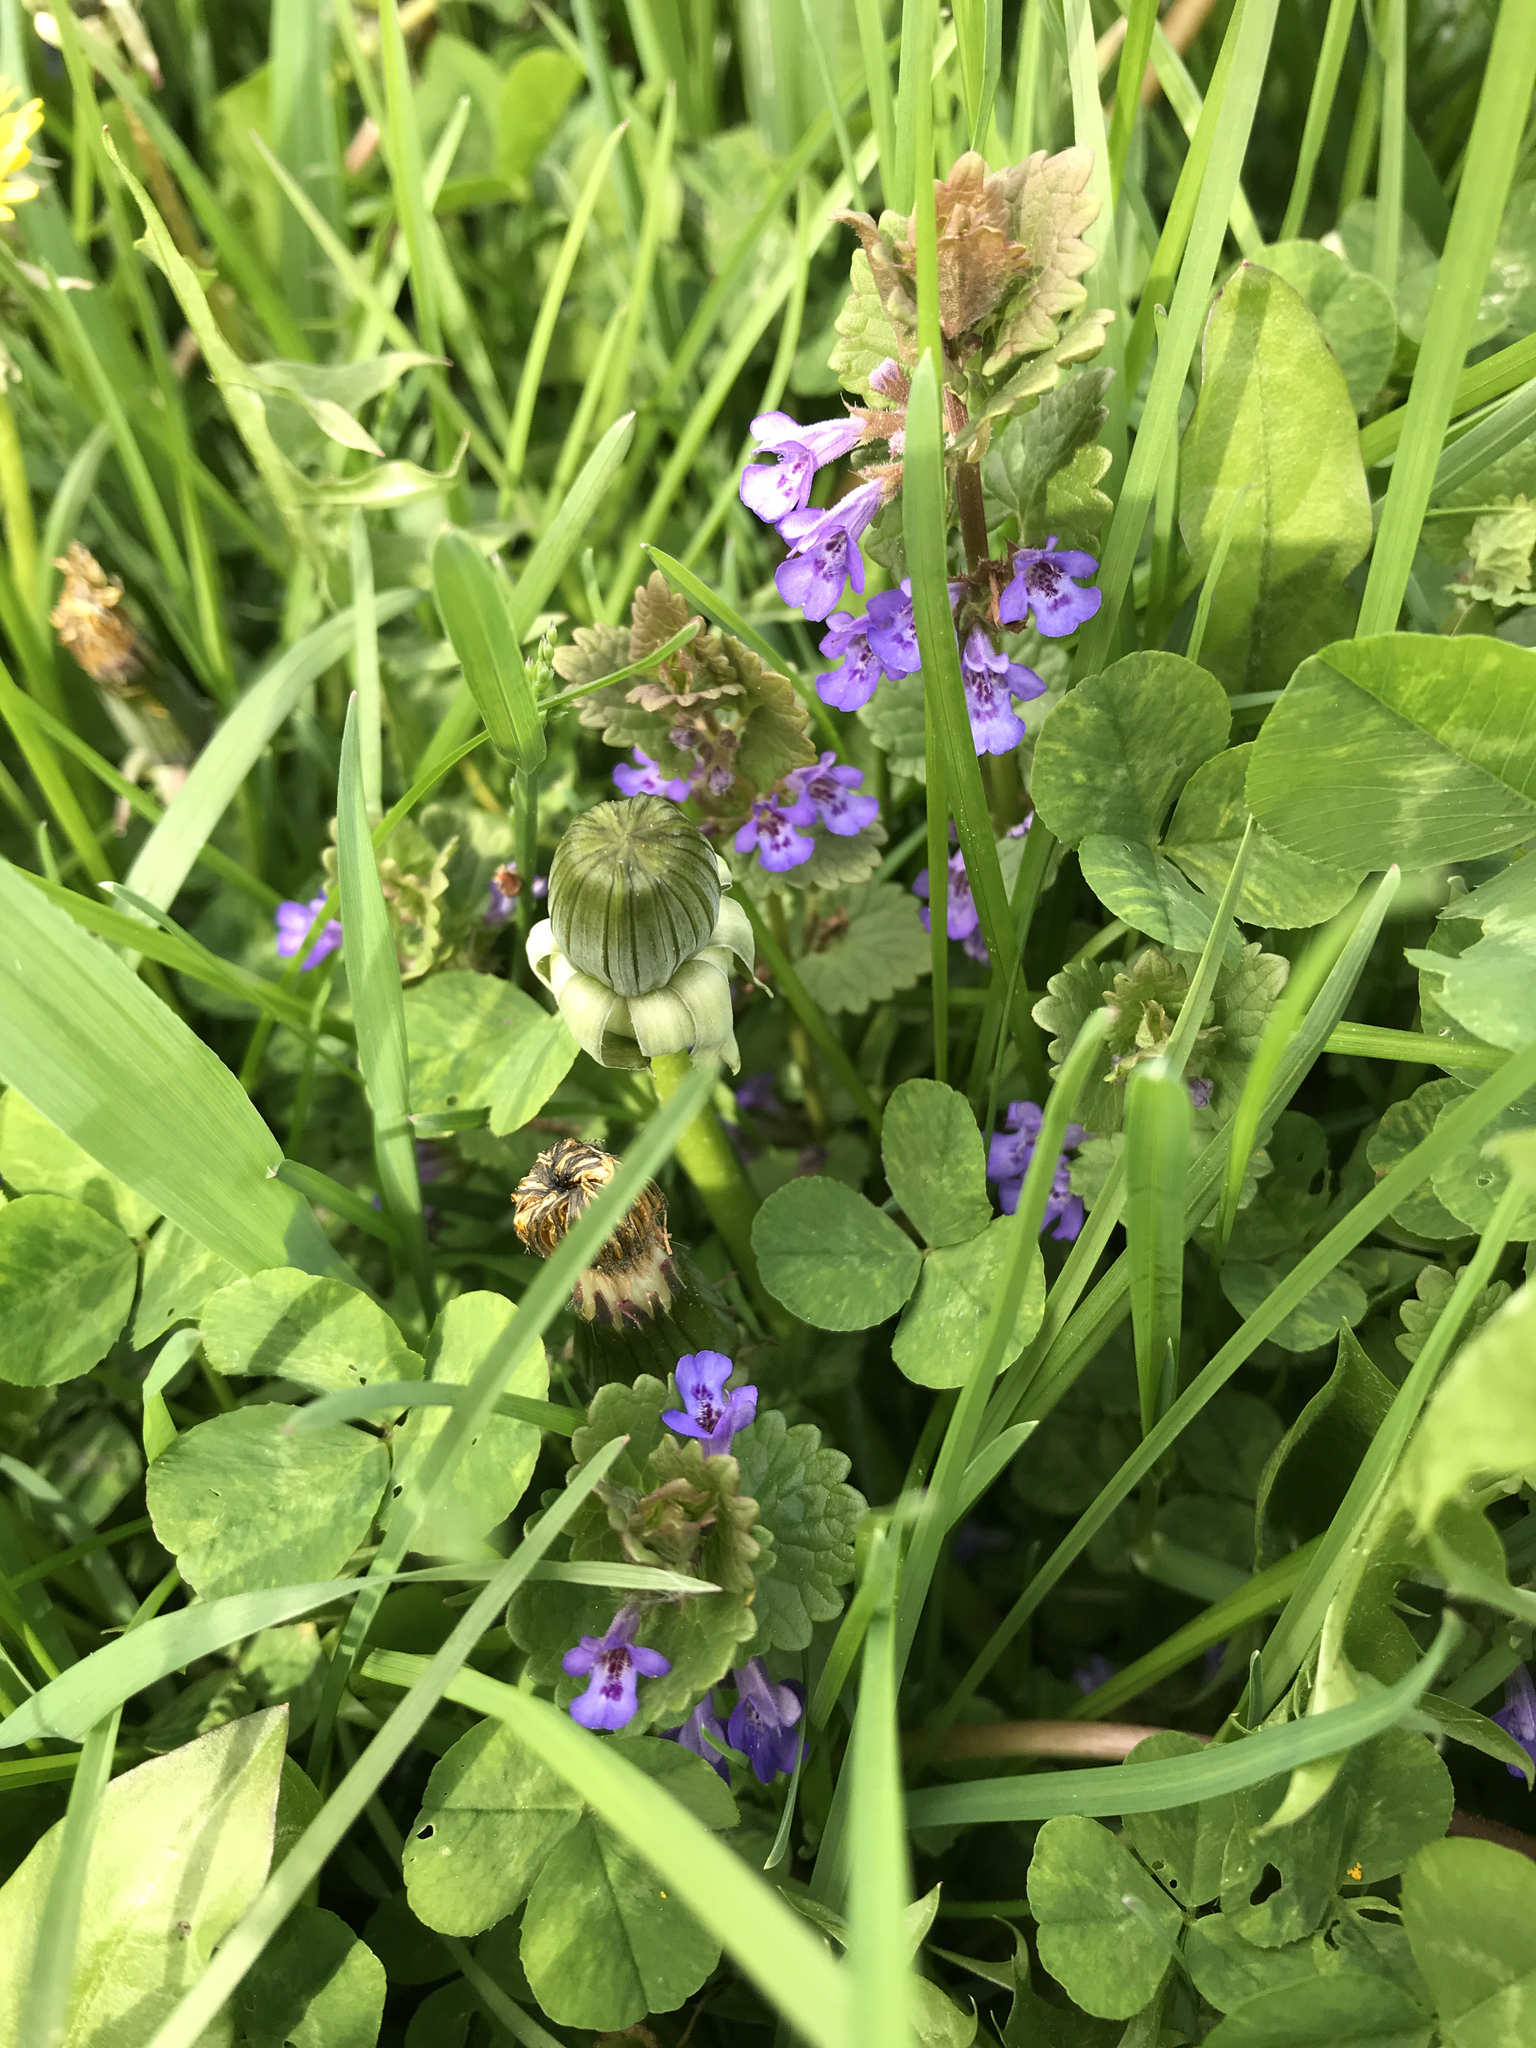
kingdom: Plantae
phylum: Tracheophyta
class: Magnoliopsida
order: Lamiales
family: Lamiaceae
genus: Glechoma
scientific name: Glechoma hederacea
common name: Ground ivy
